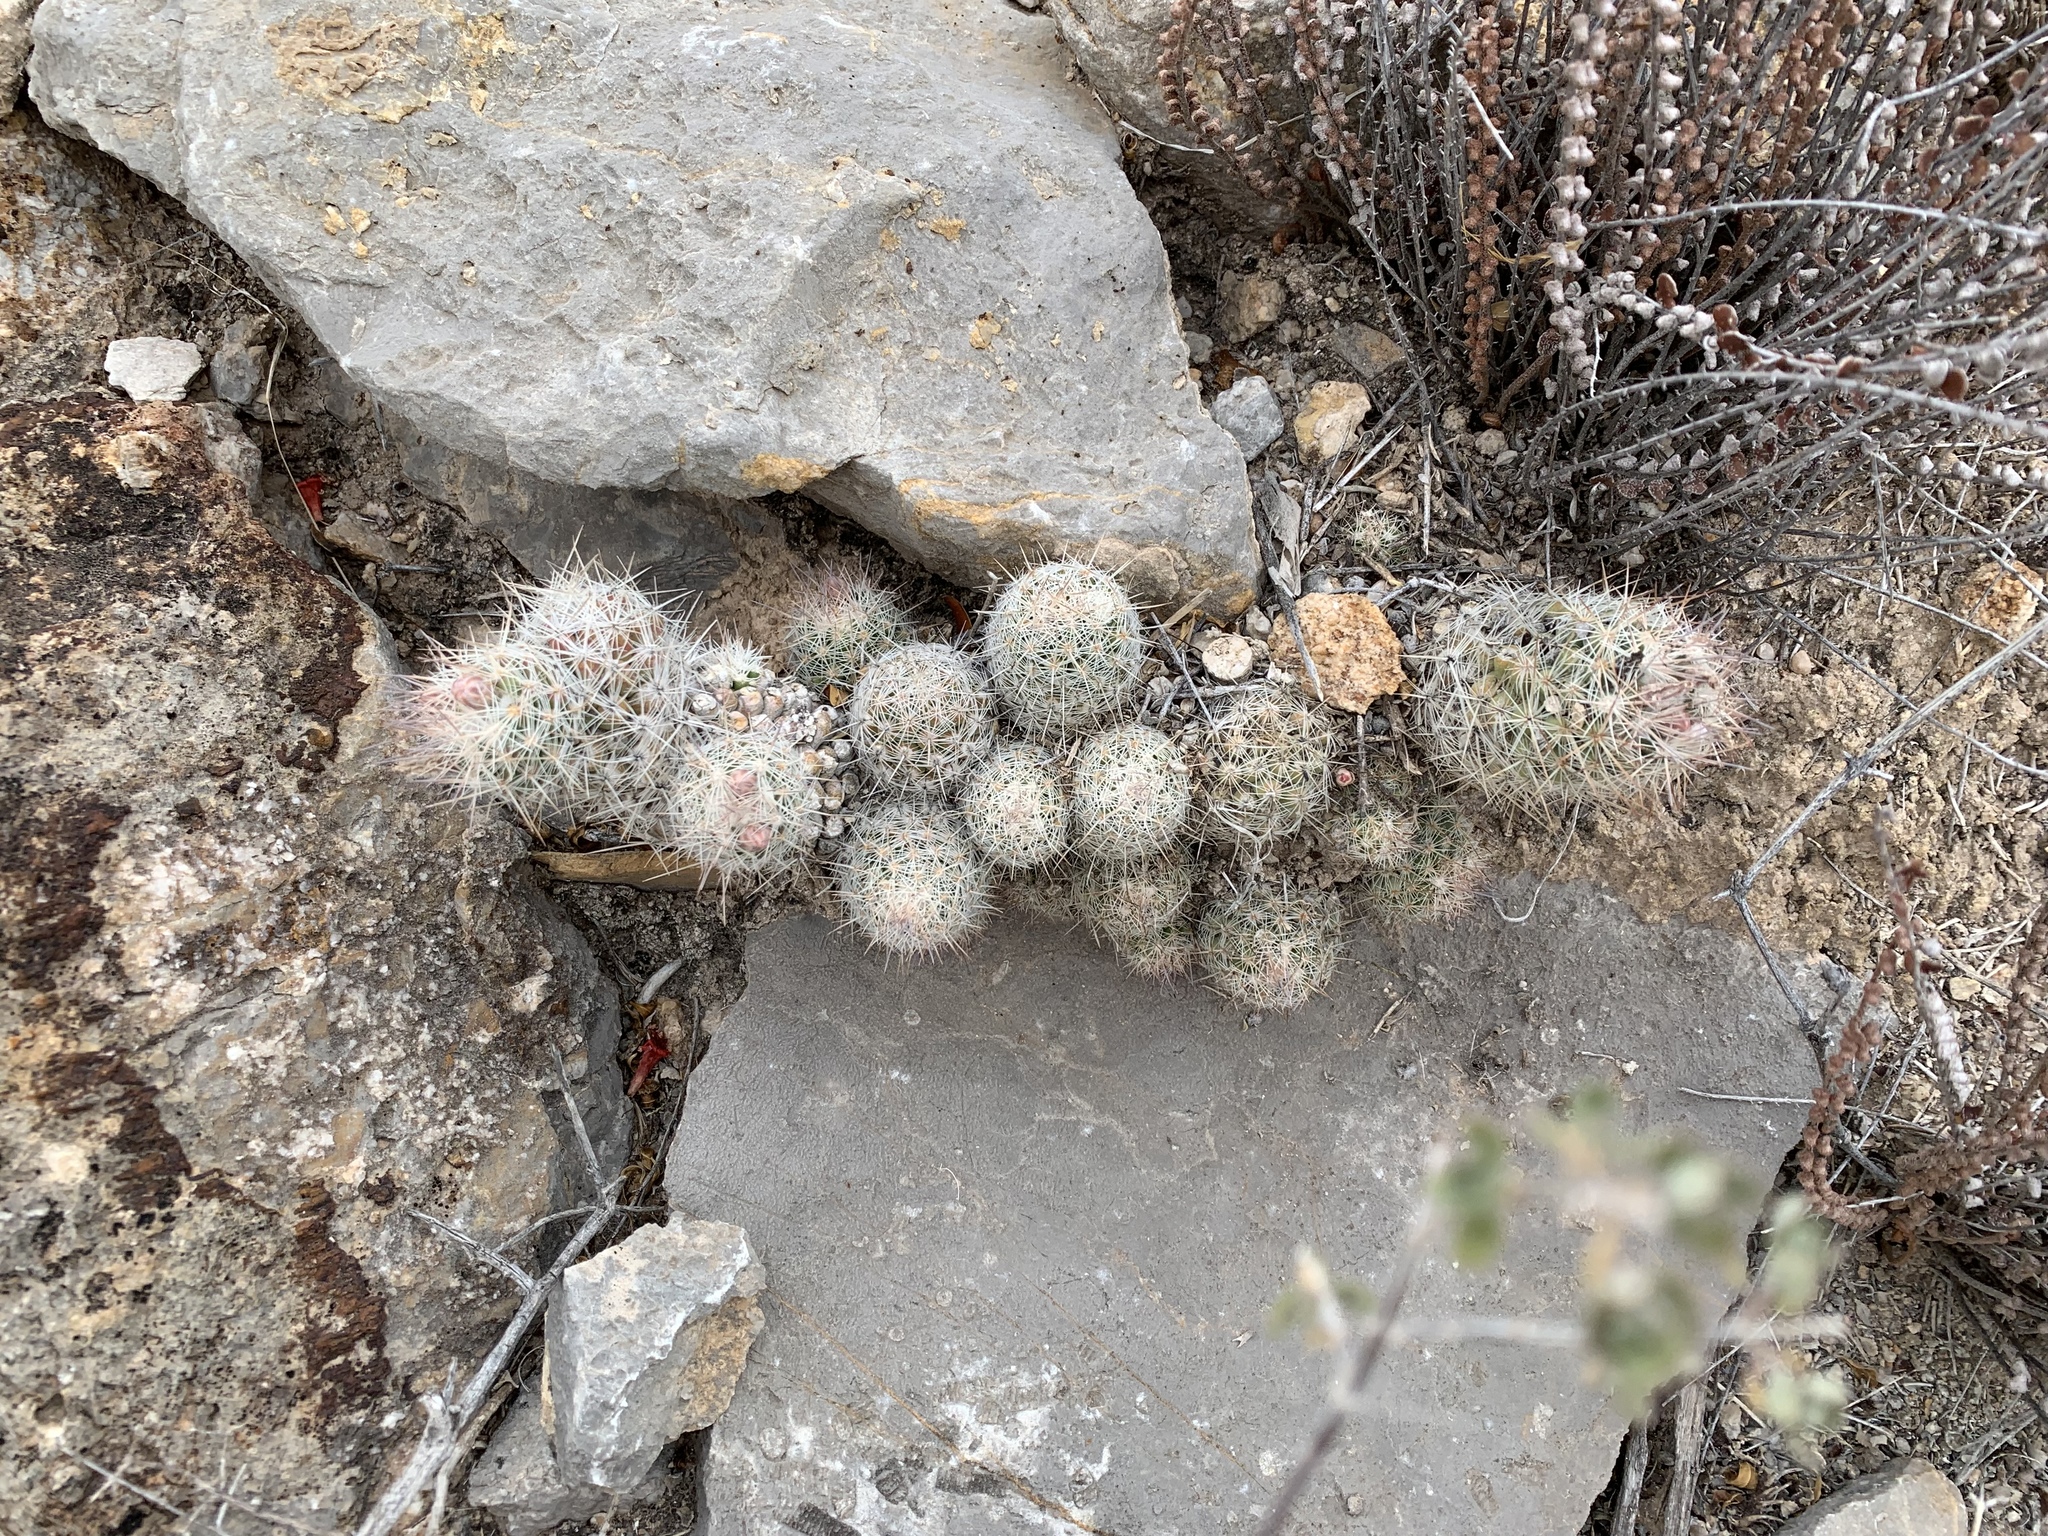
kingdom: Plantae
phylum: Tracheophyta
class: Magnoliopsida
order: Caryophyllales
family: Cactaceae
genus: Pelecyphora
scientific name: Pelecyphora tuberculosa
